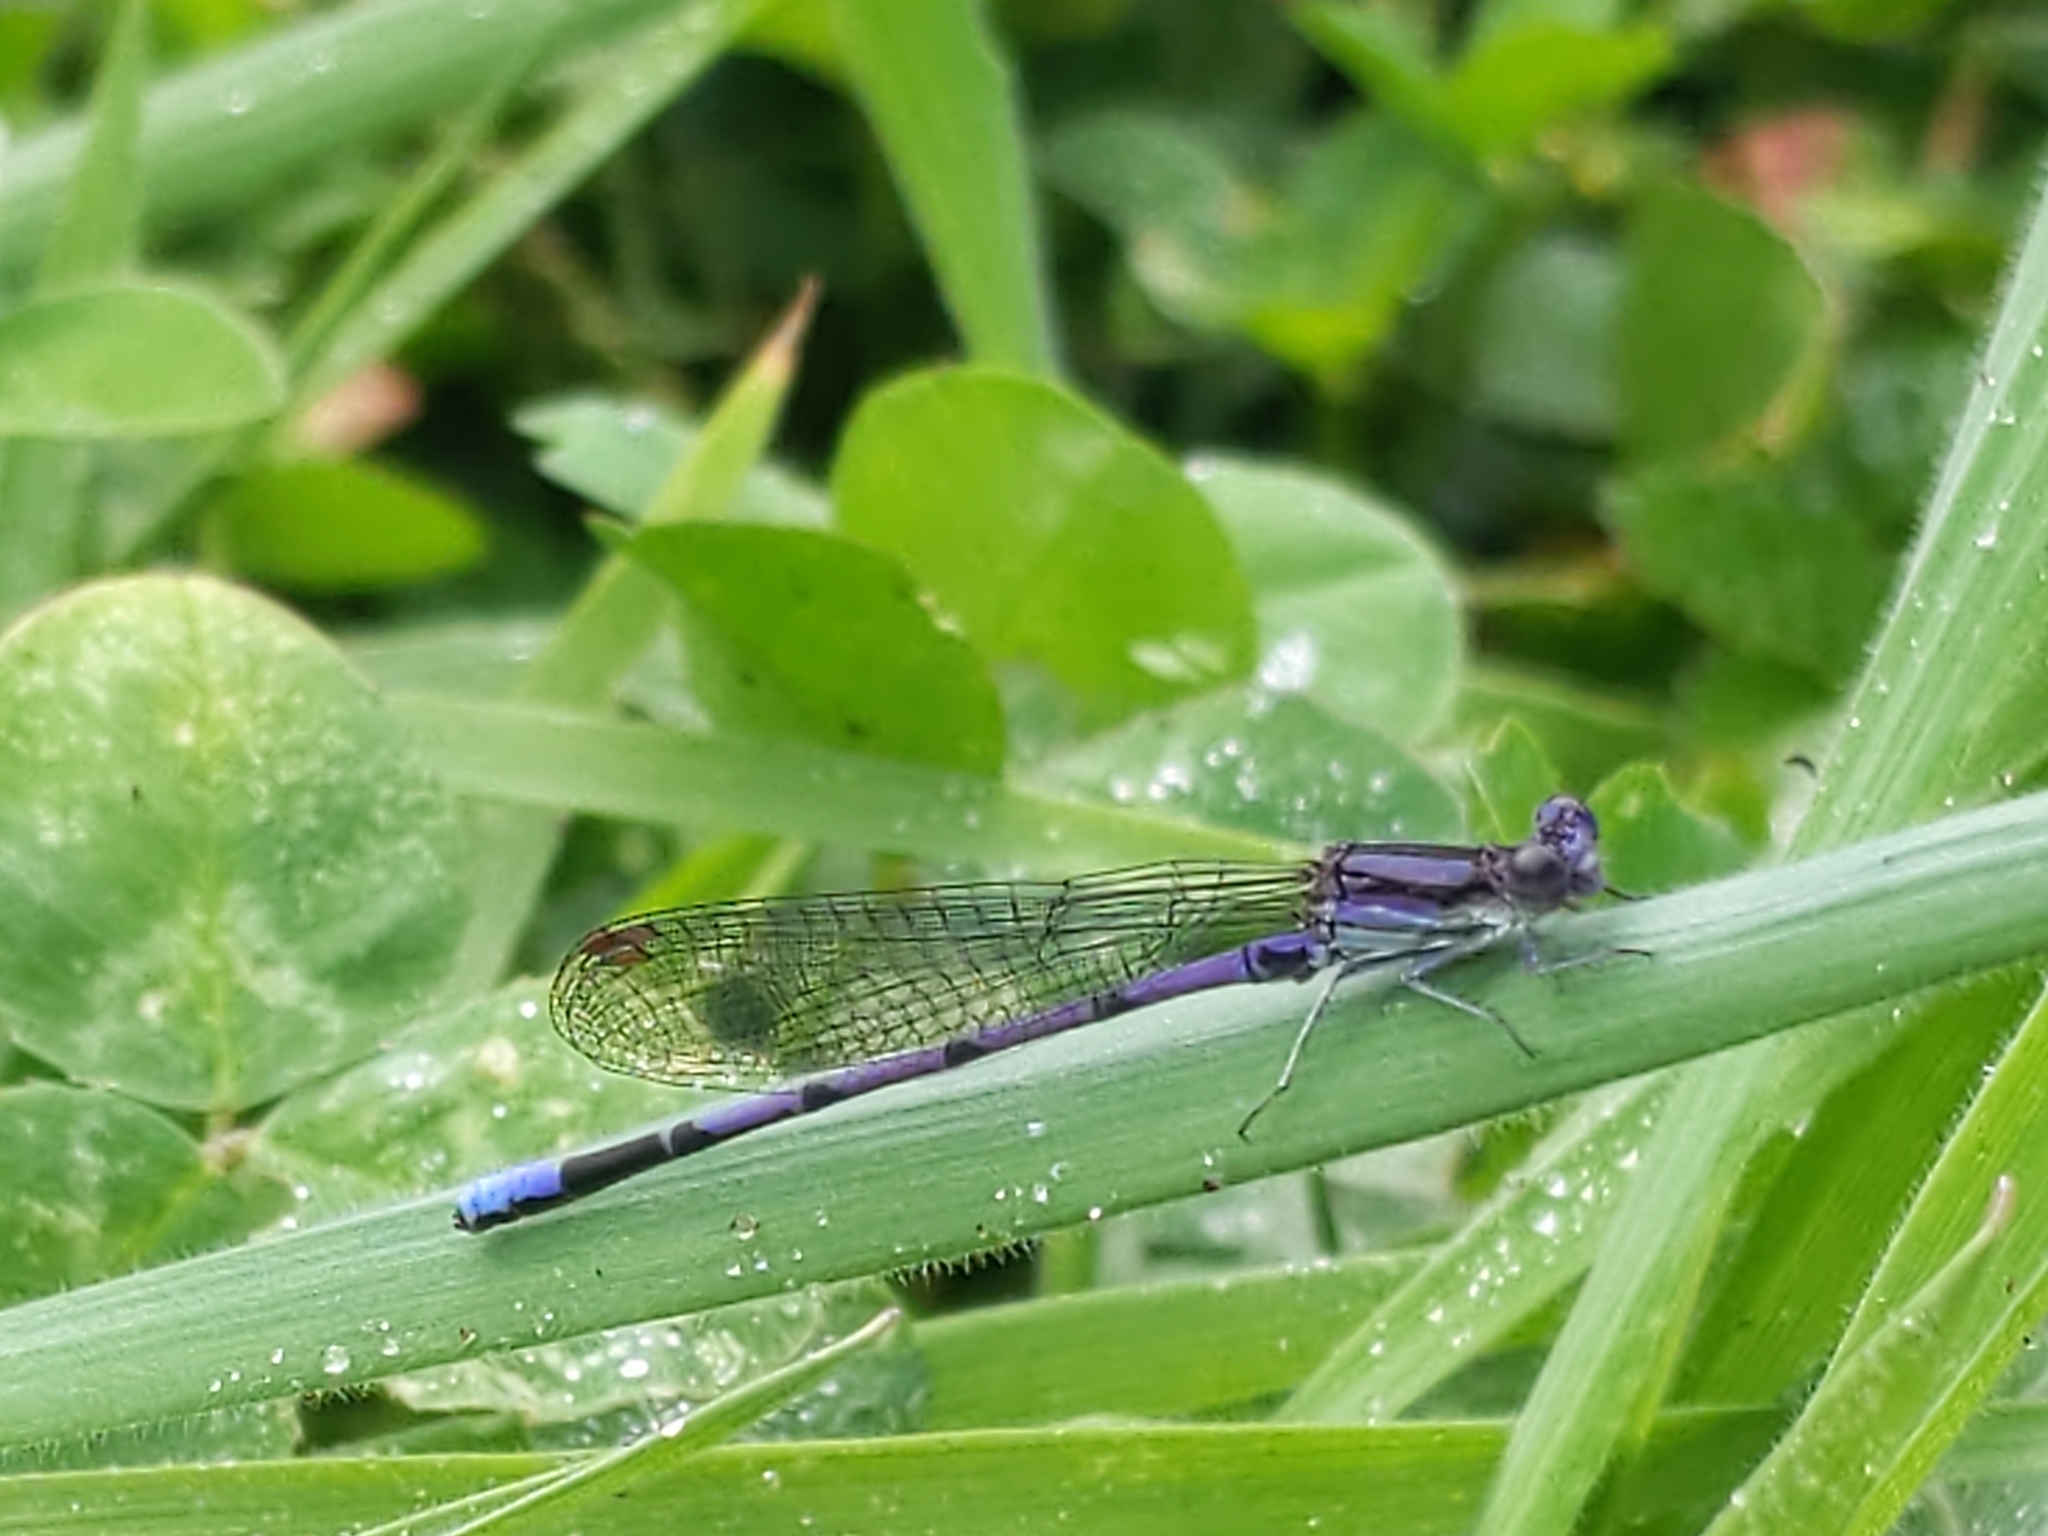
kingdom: Animalia
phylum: Arthropoda
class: Insecta
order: Odonata
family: Coenagrionidae
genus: Argia
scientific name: Argia fumipennis
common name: Variable dancer
